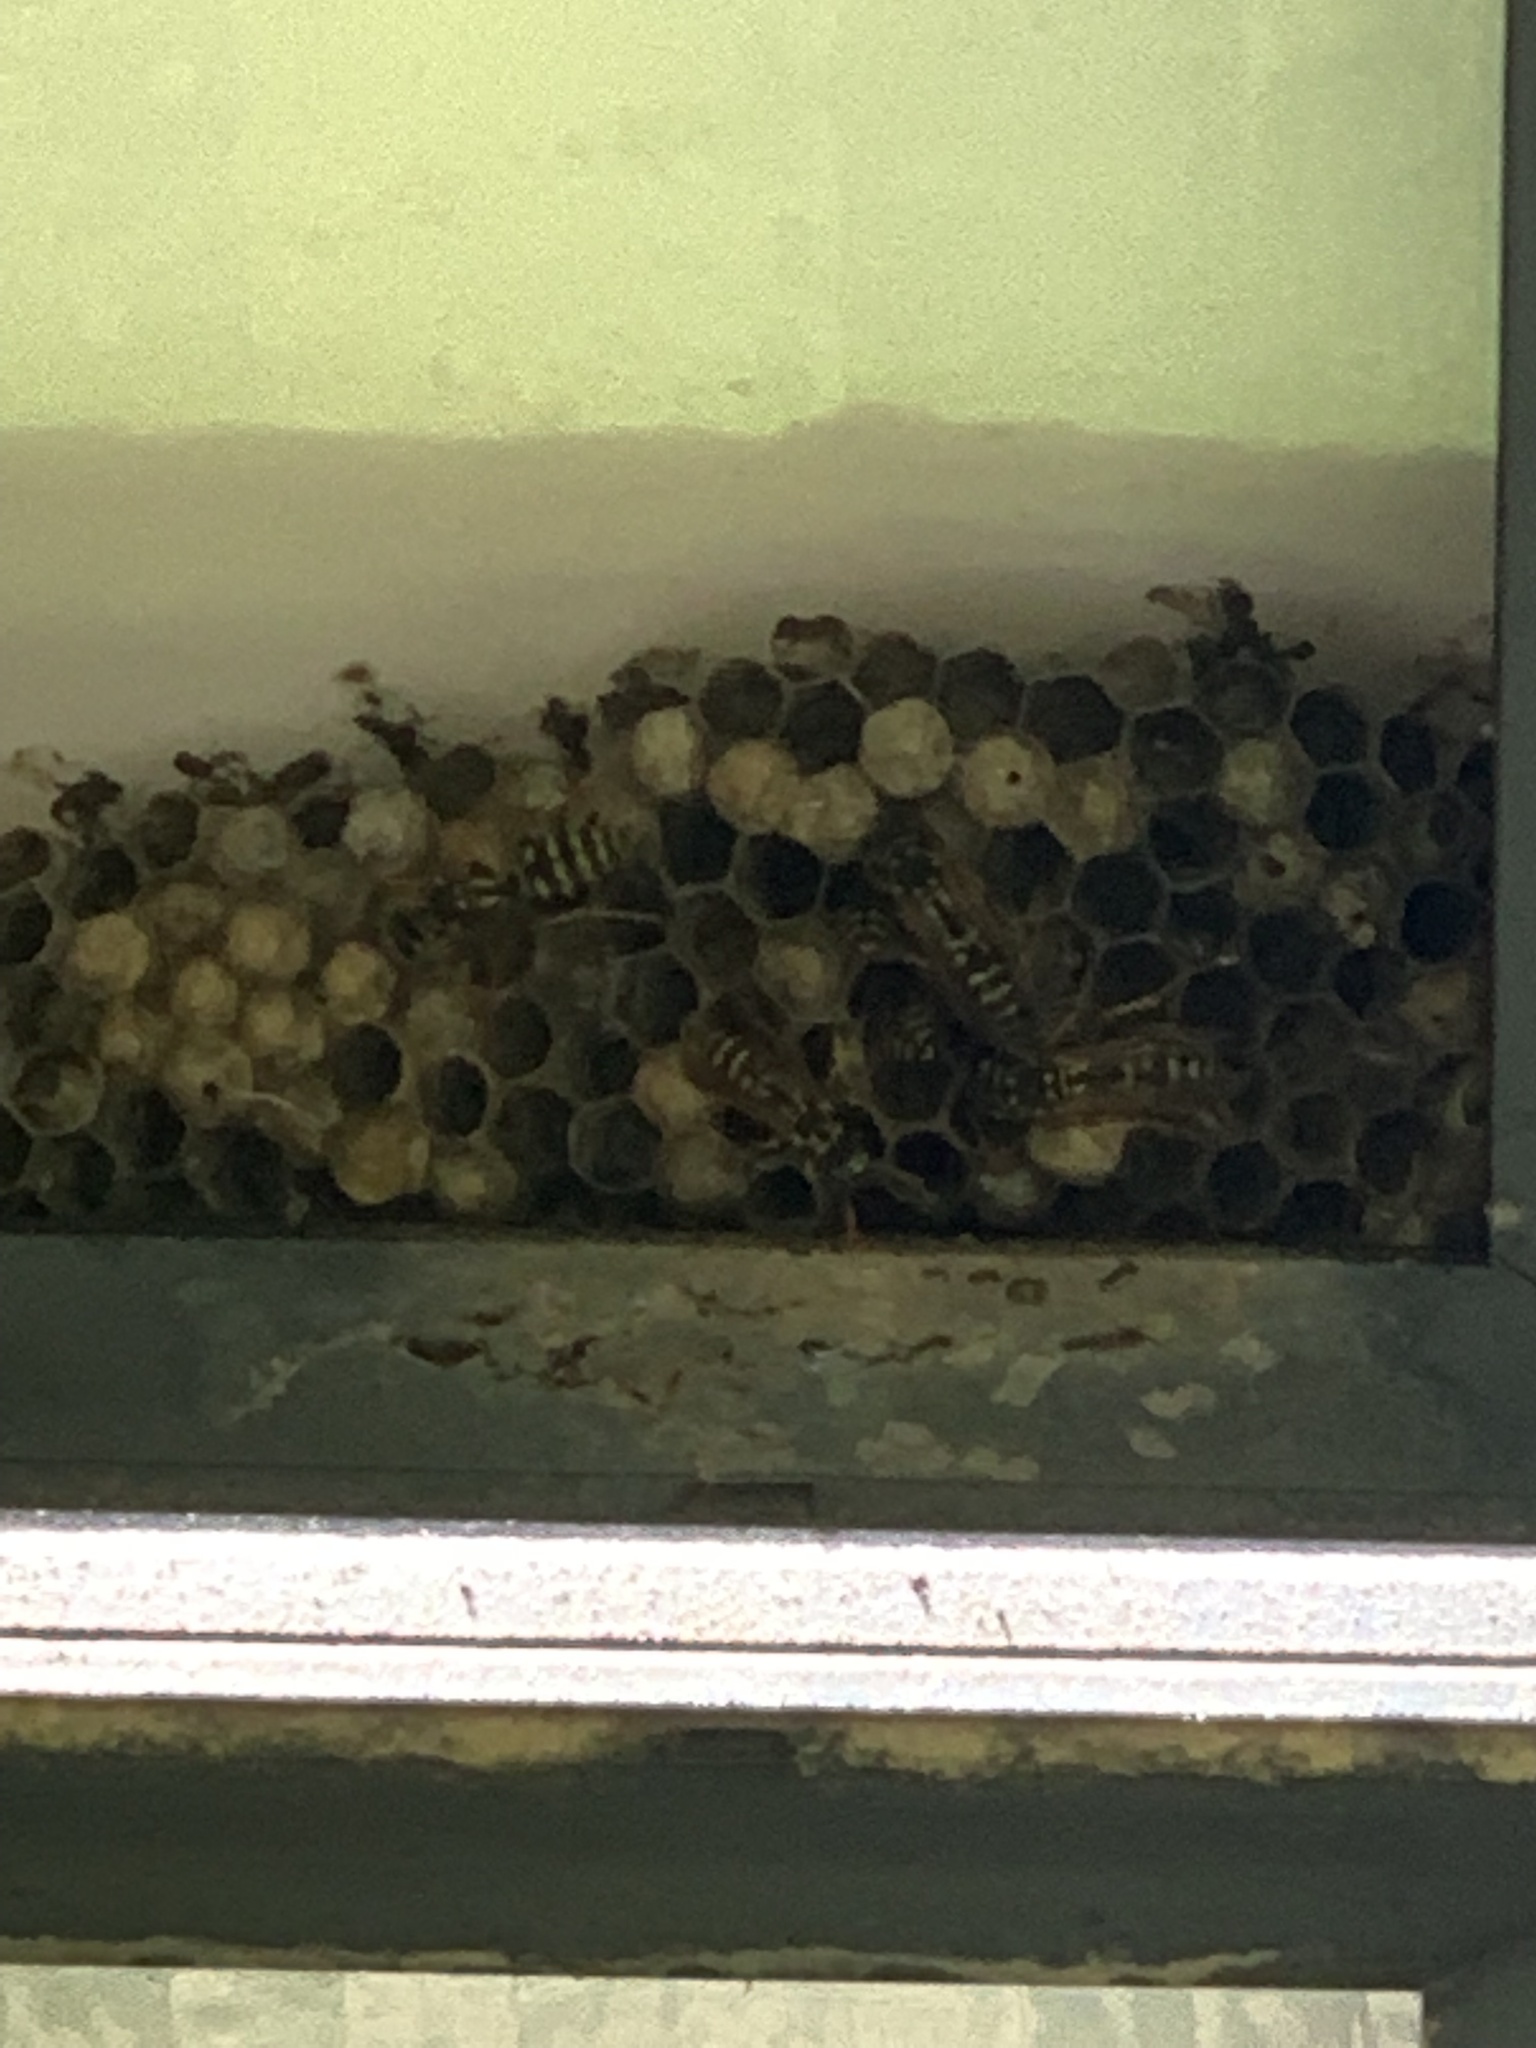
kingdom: Animalia
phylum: Arthropoda
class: Insecta
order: Hymenoptera
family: Eumenidae
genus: Polistes
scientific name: Polistes dominula
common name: Paper wasp
